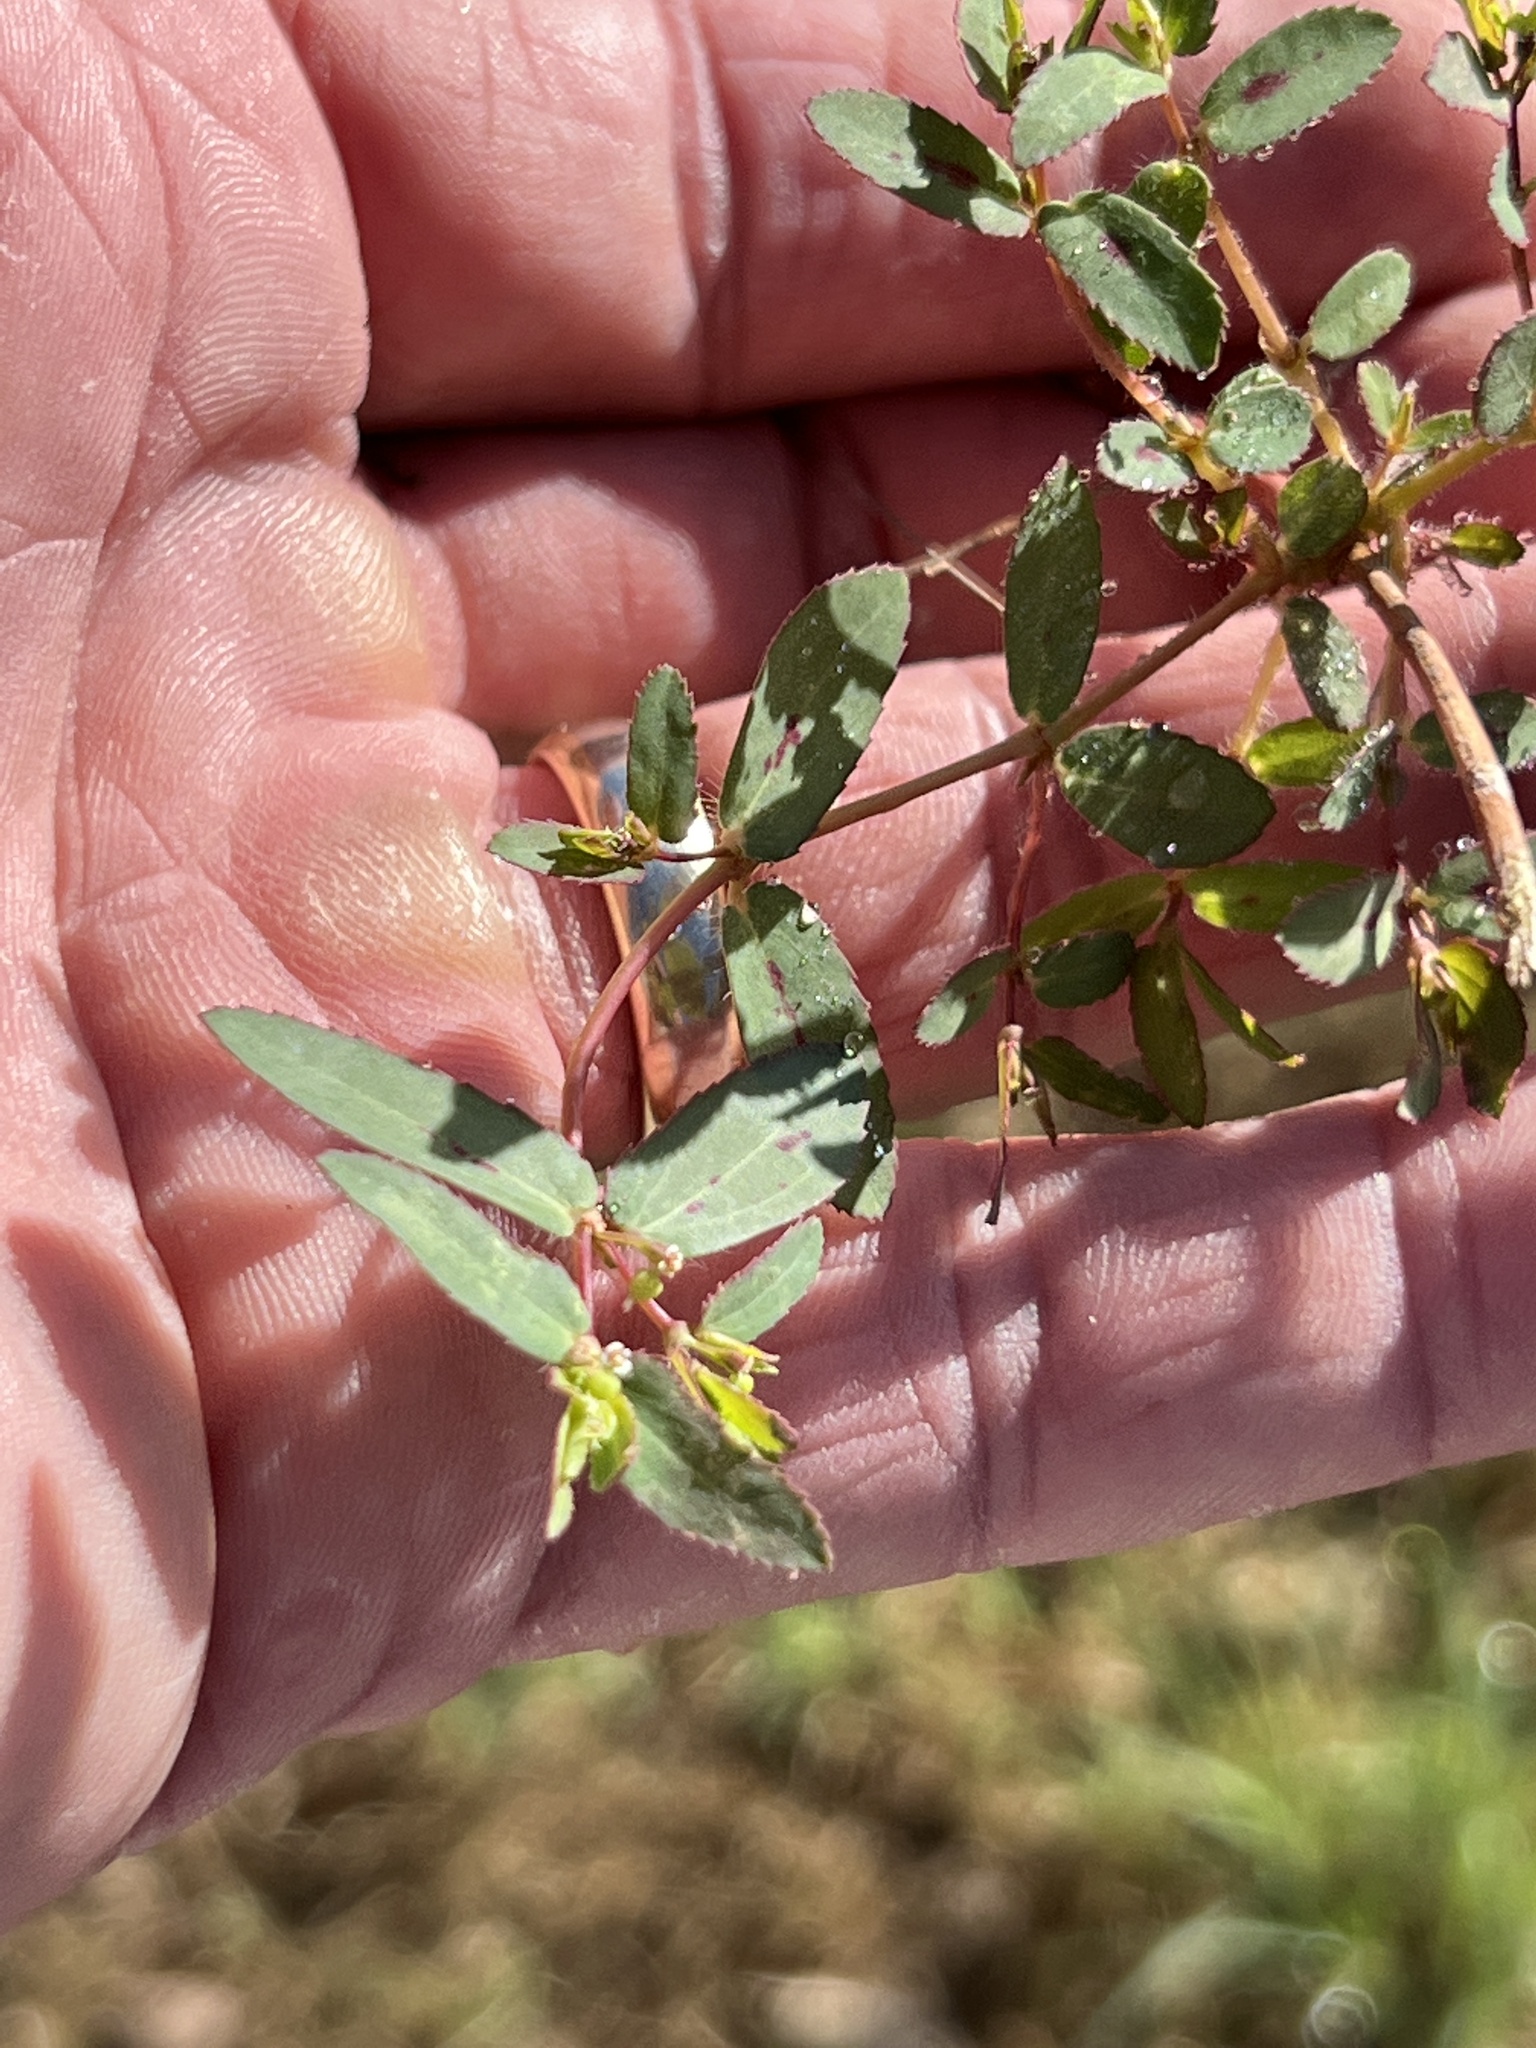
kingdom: Plantae
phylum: Tracheophyta
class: Magnoliopsida
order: Malpighiales
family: Euphorbiaceae
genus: Euphorbia
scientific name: Euphorbia hyssopifolia
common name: Hyssopleaf sandmat
